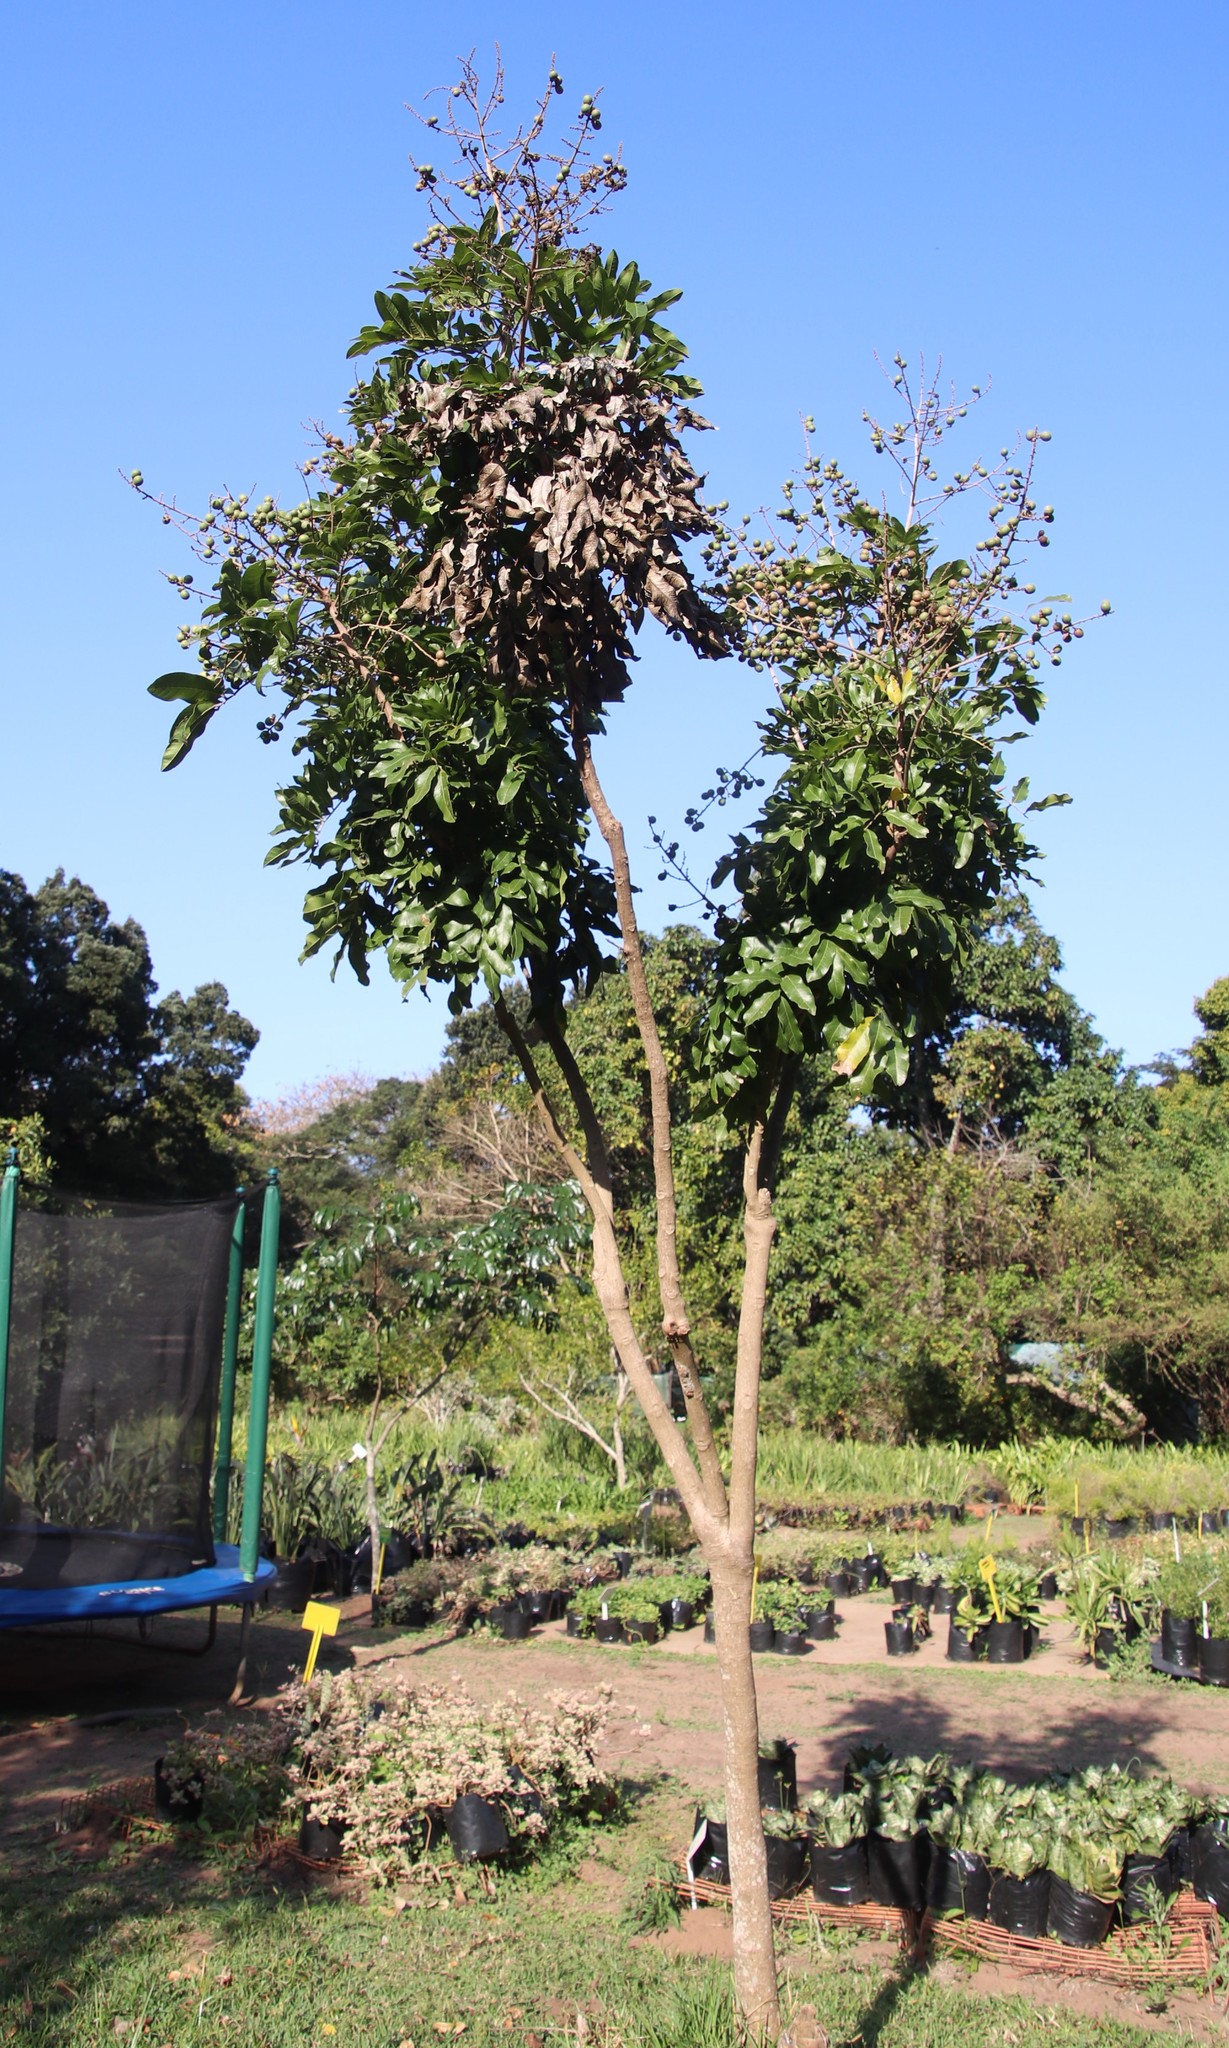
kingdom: Plantae
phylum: Tracheophyta
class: Magnoliopsida
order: Sapindales
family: Sapindaceae
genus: Deinbollia
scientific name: Deinbollia oblongifolia
